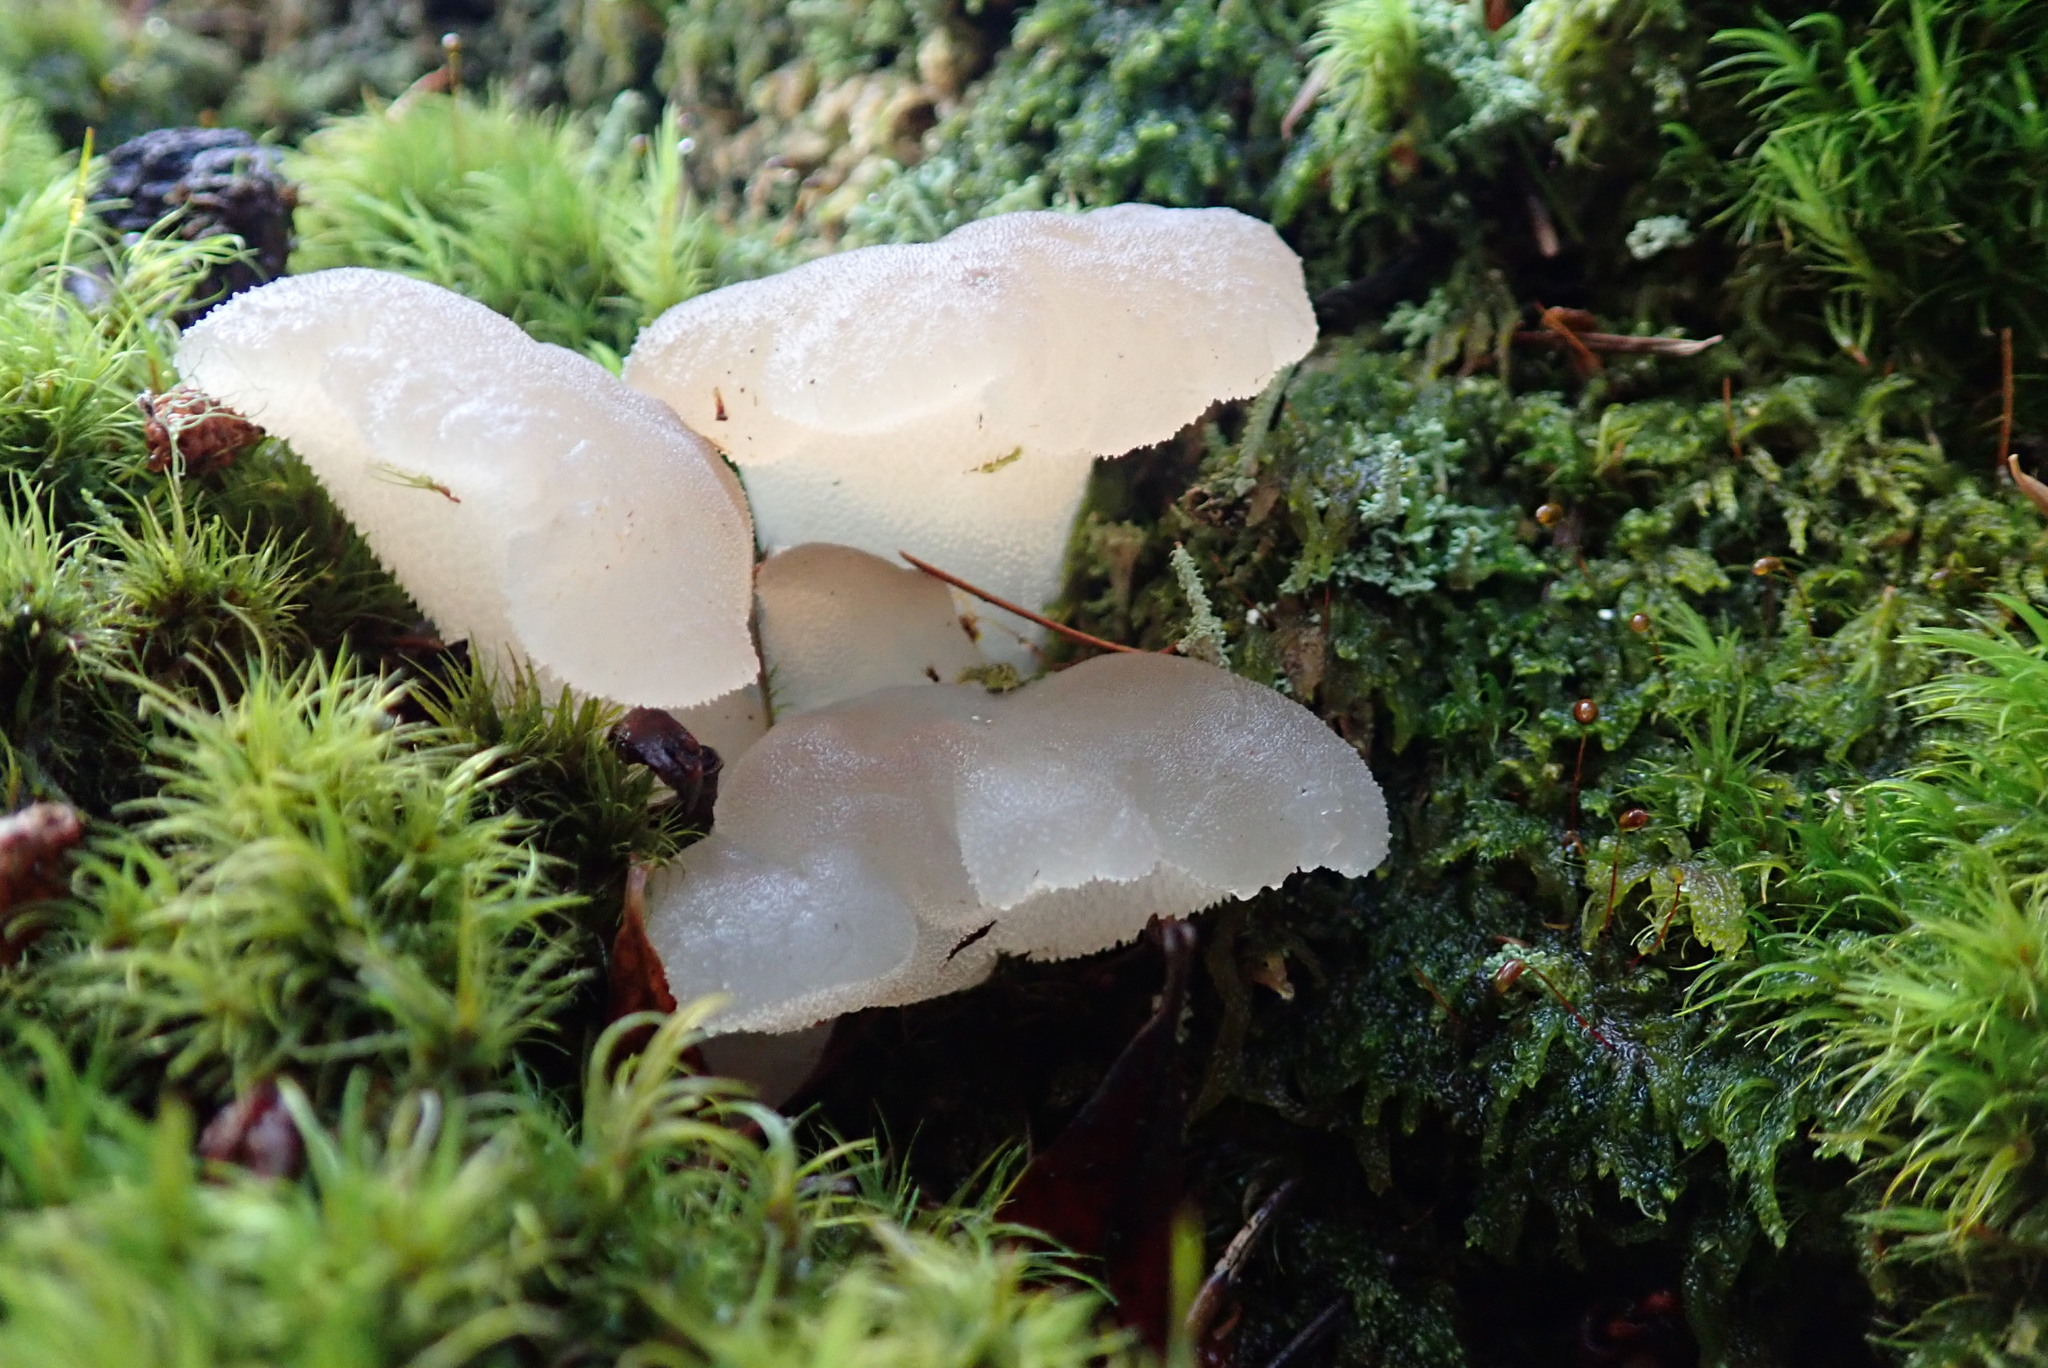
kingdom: Fungi
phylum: Basidiomycota
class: Agaricomycetes
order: Auriculariales
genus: Pseudohydnum
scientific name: Pseudohydnum gelatinosum
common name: Jelly tongue
